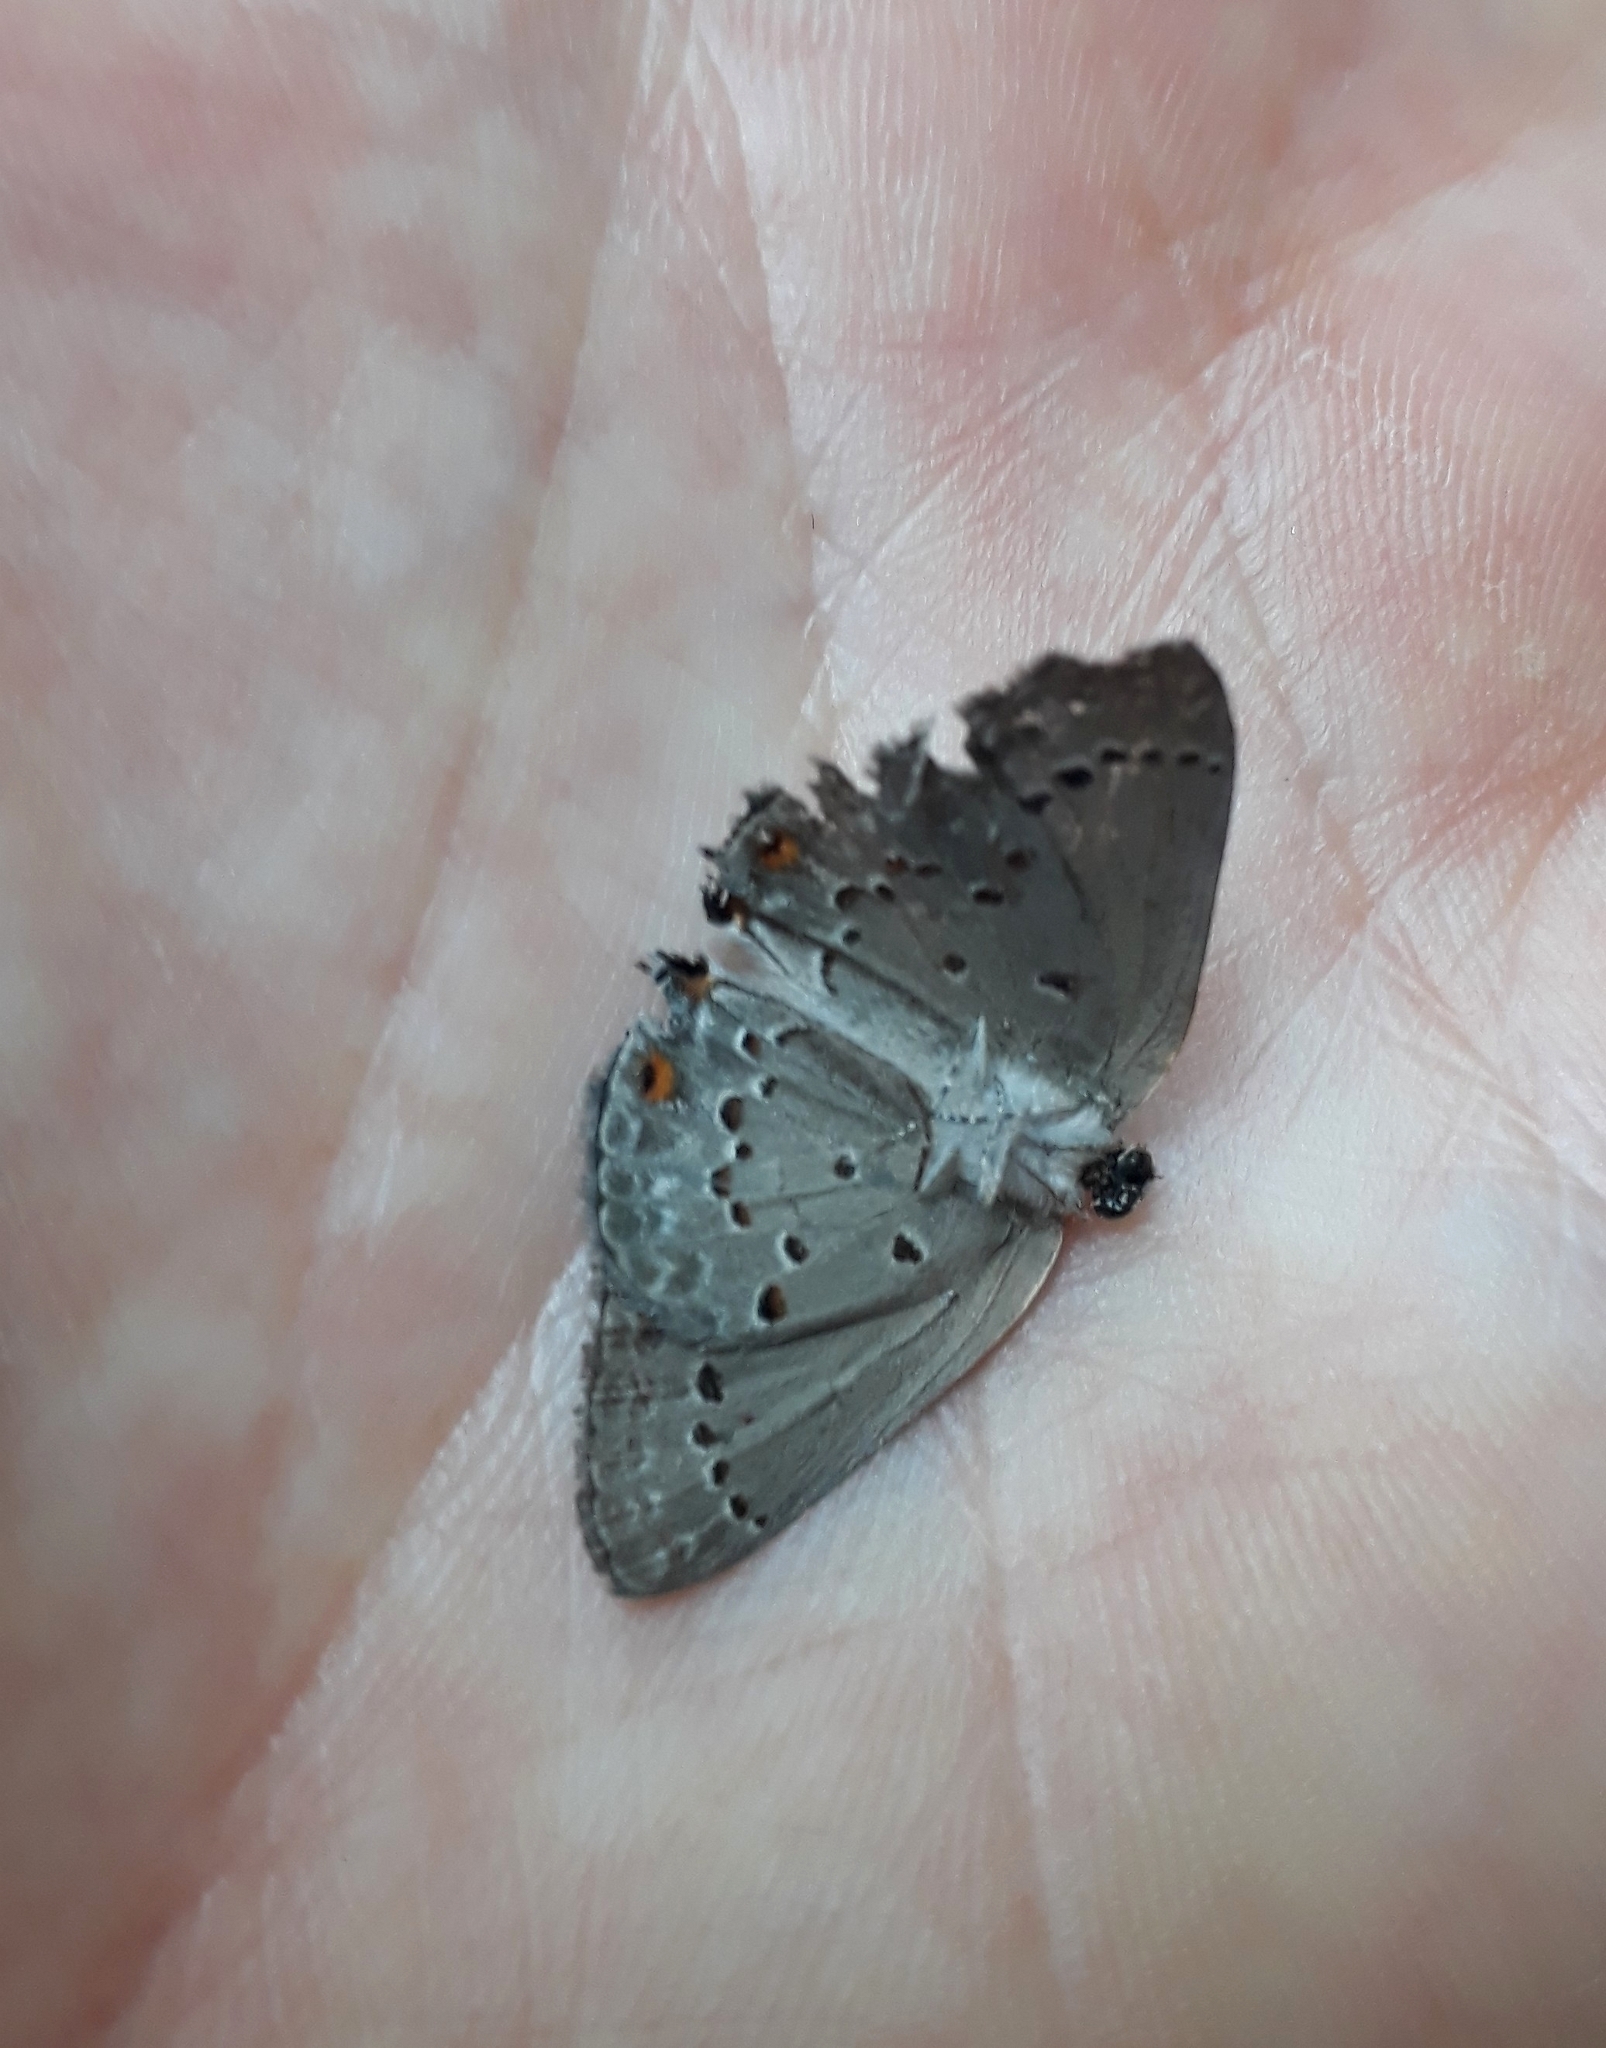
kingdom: Animalia
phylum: Arthropoda
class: Insecta
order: Lepidoptera
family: Lycaenidae
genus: Strymon
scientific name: Strymon eurytulus
